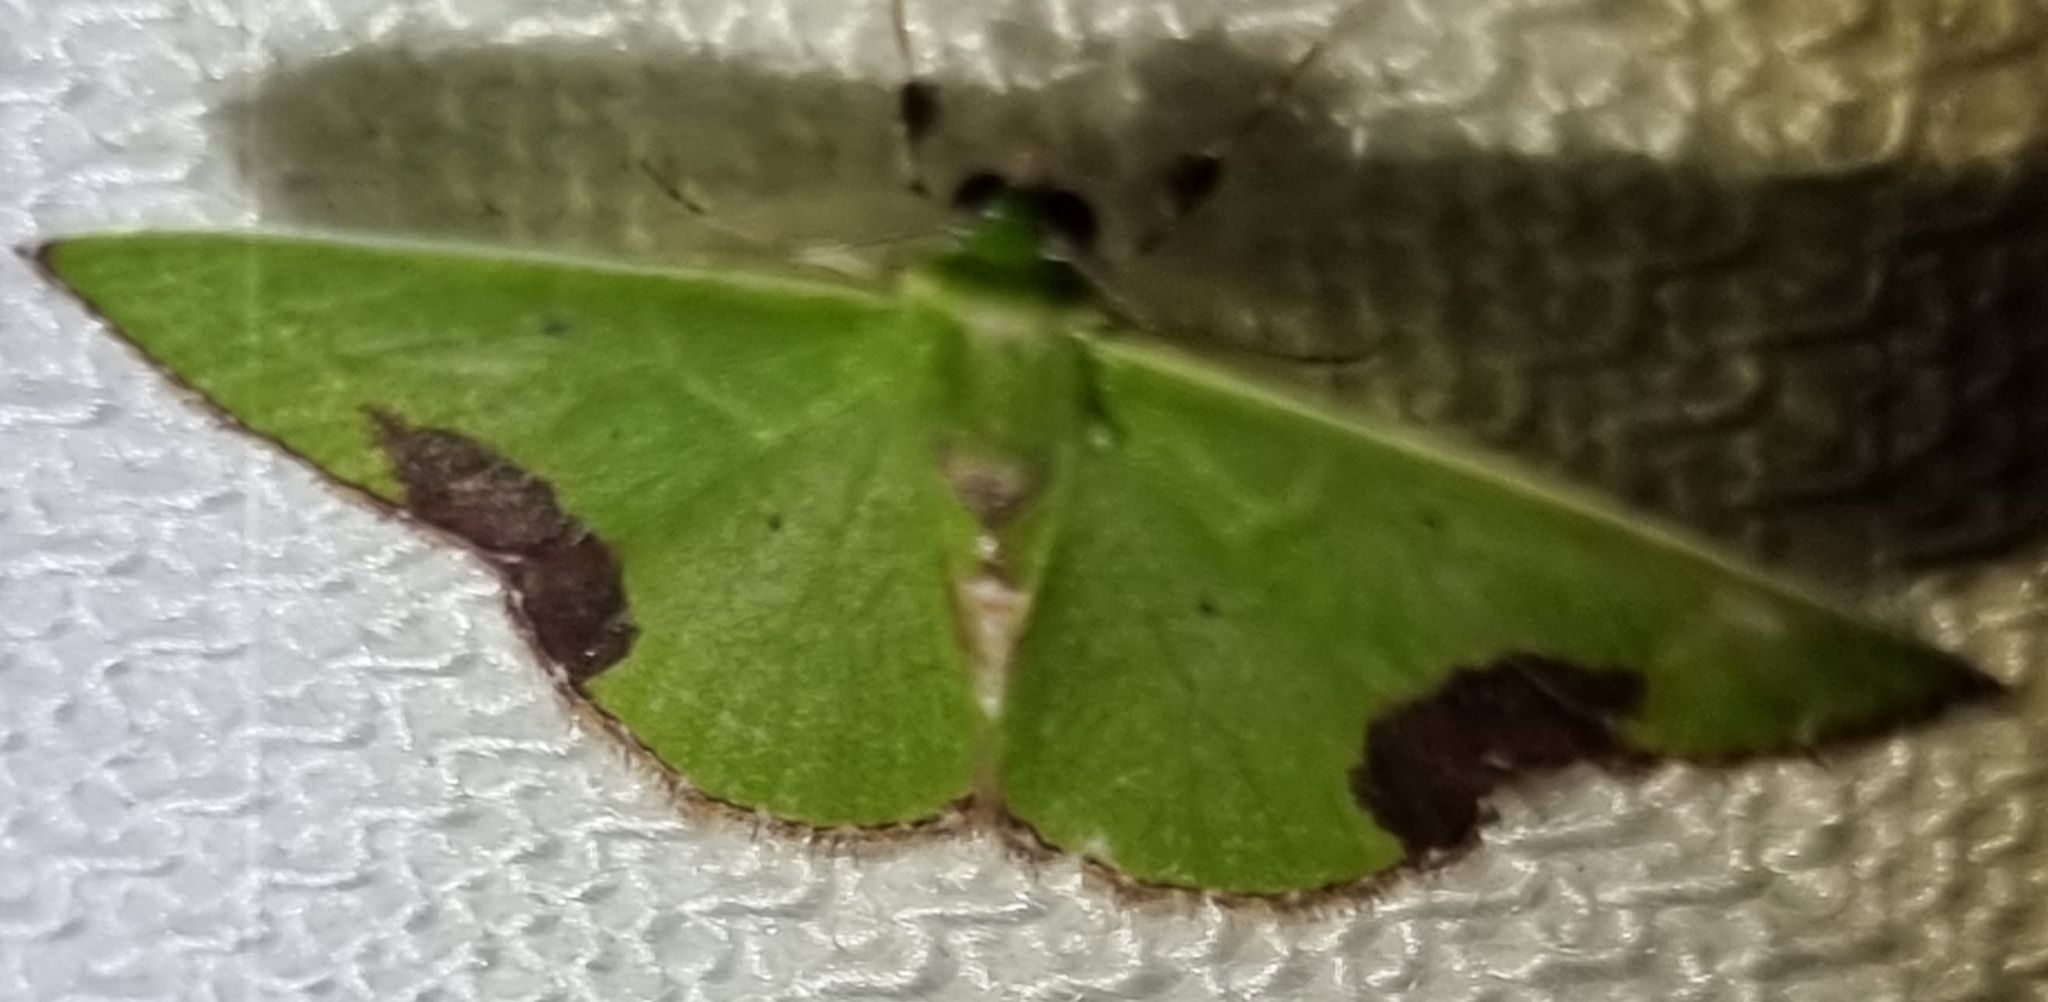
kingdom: Animalia
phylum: Arthropoda
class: Insecta
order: Lepidoptera
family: Geometridae
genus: Comibaena
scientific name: Comibaena mariae
